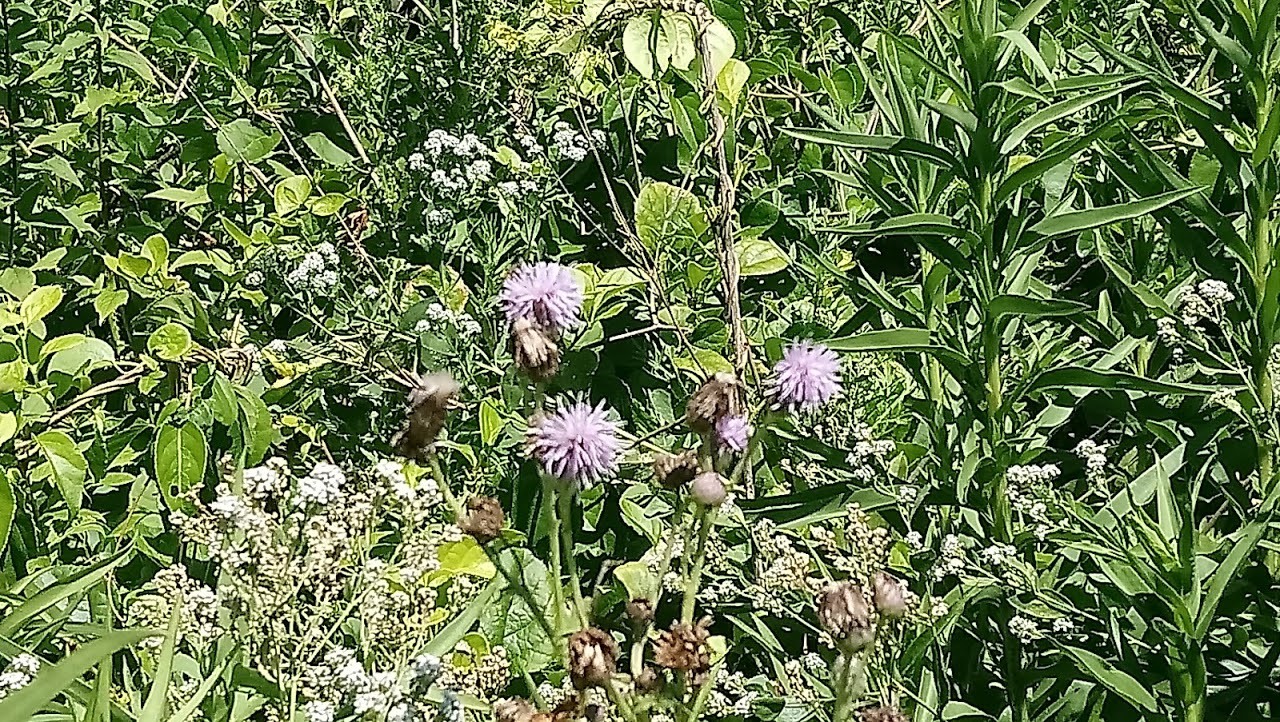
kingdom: Plantae
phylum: Tracheophyta
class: Magnoliopsida
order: Asterales
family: Asteraceae
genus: Cirsium
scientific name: Cirsium arvense
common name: Creeping thistle
